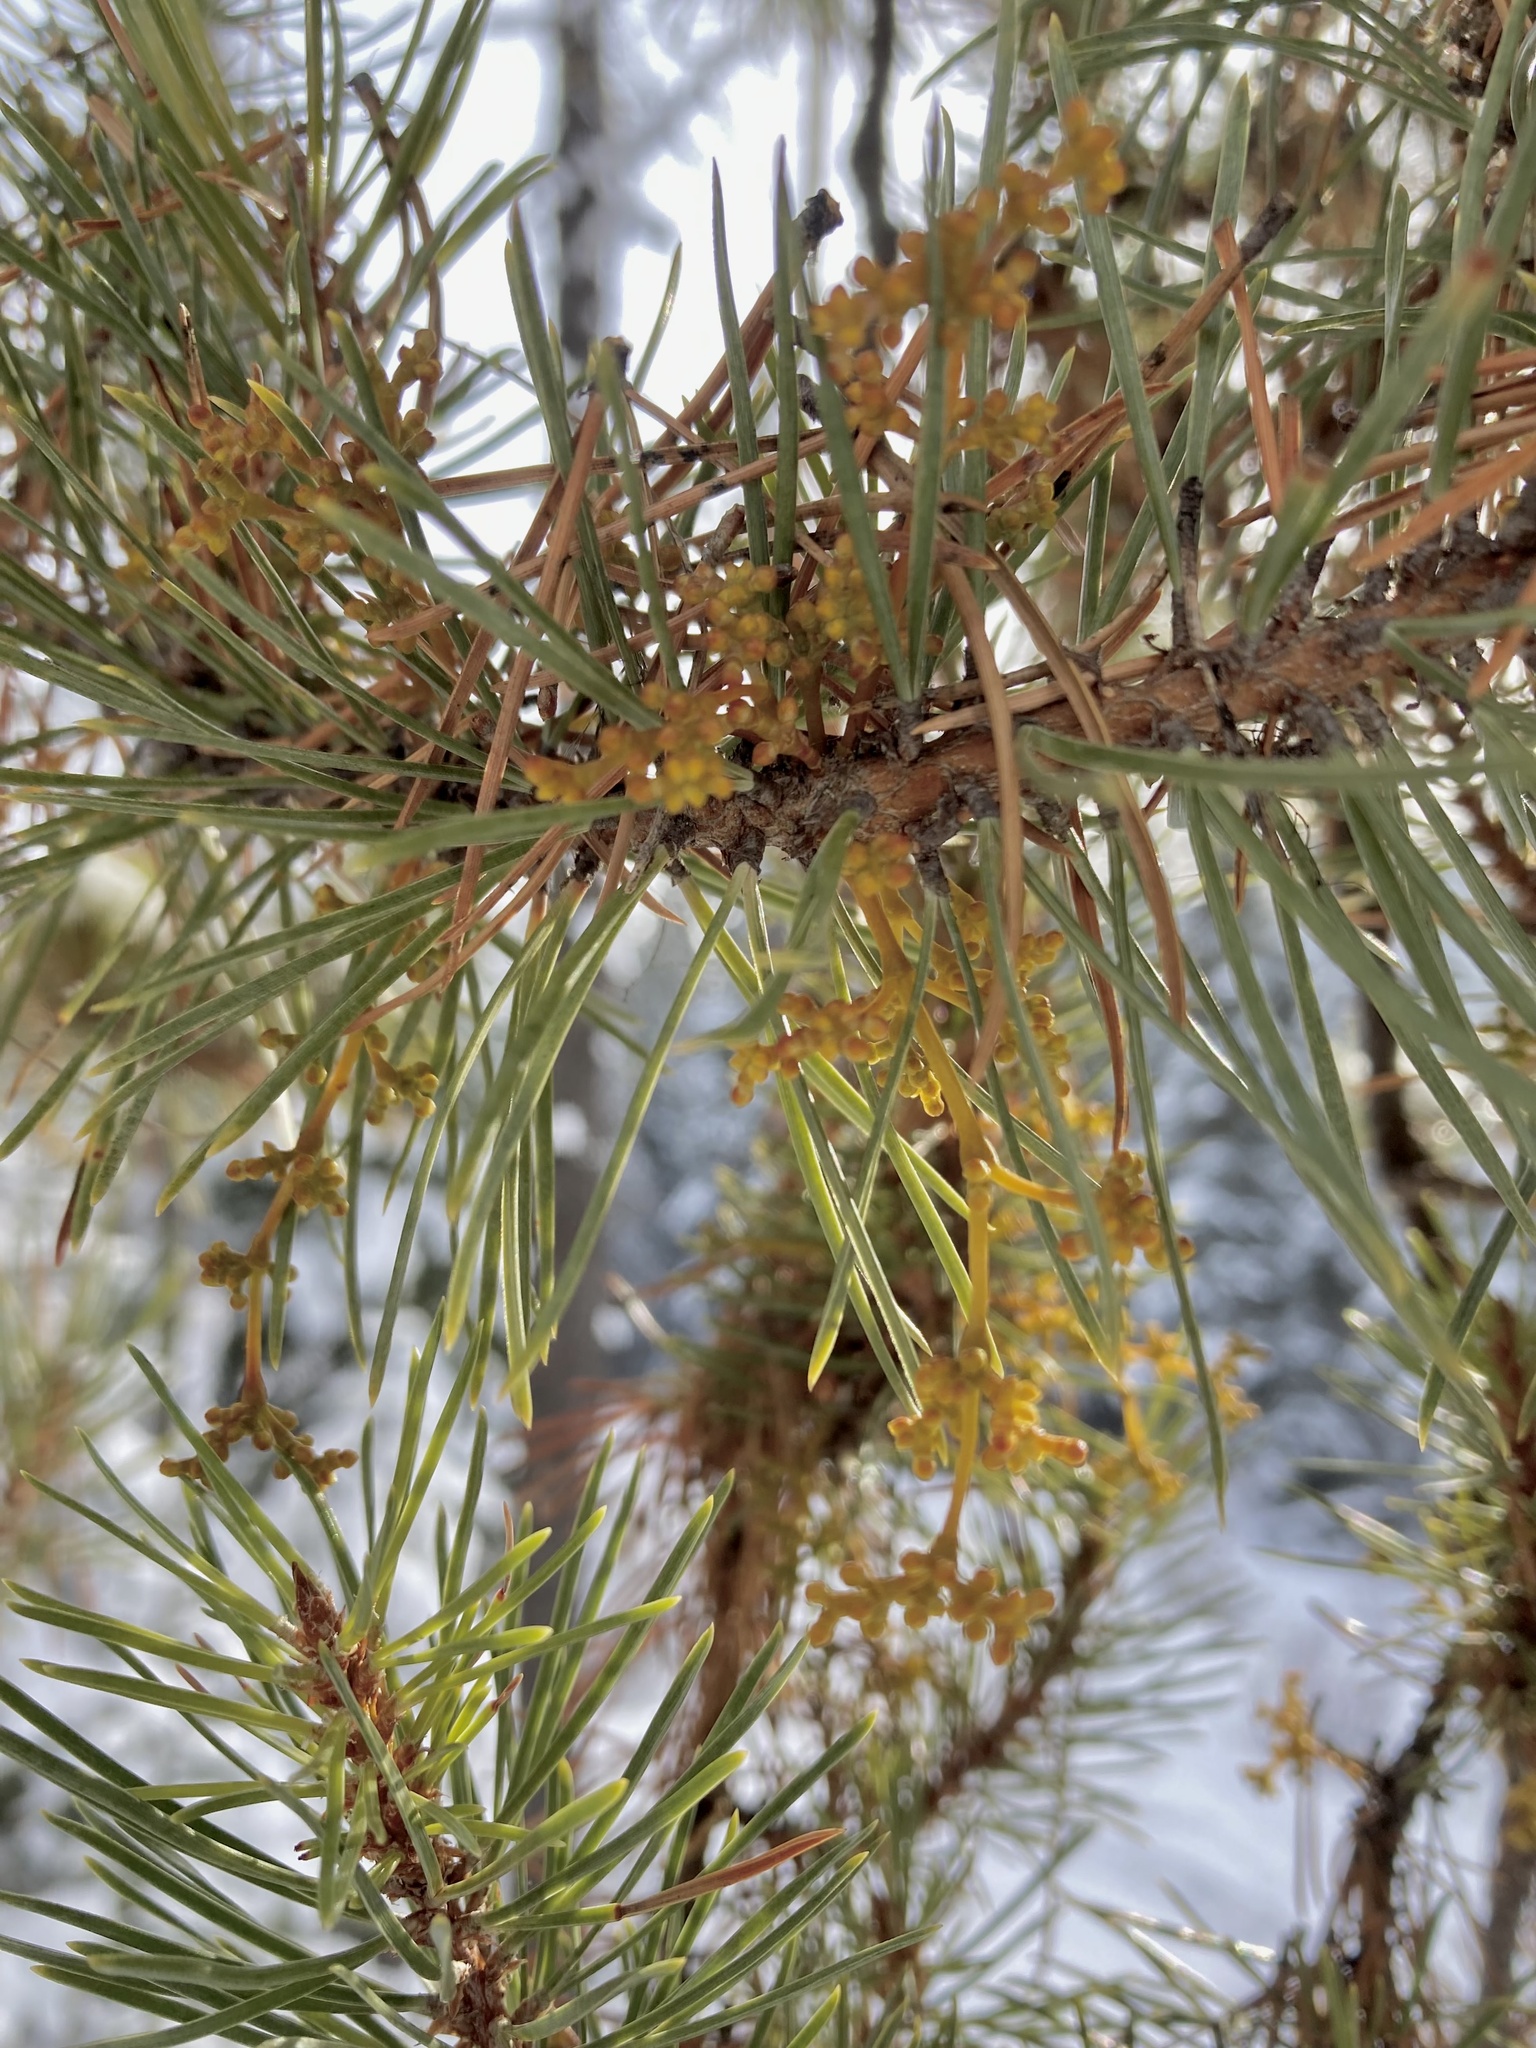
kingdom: Plantae
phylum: Tracheophyta
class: Magnoliopsida
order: Santalales
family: Viscaceae
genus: Arceuthobium
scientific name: Arceuthobium americanum
